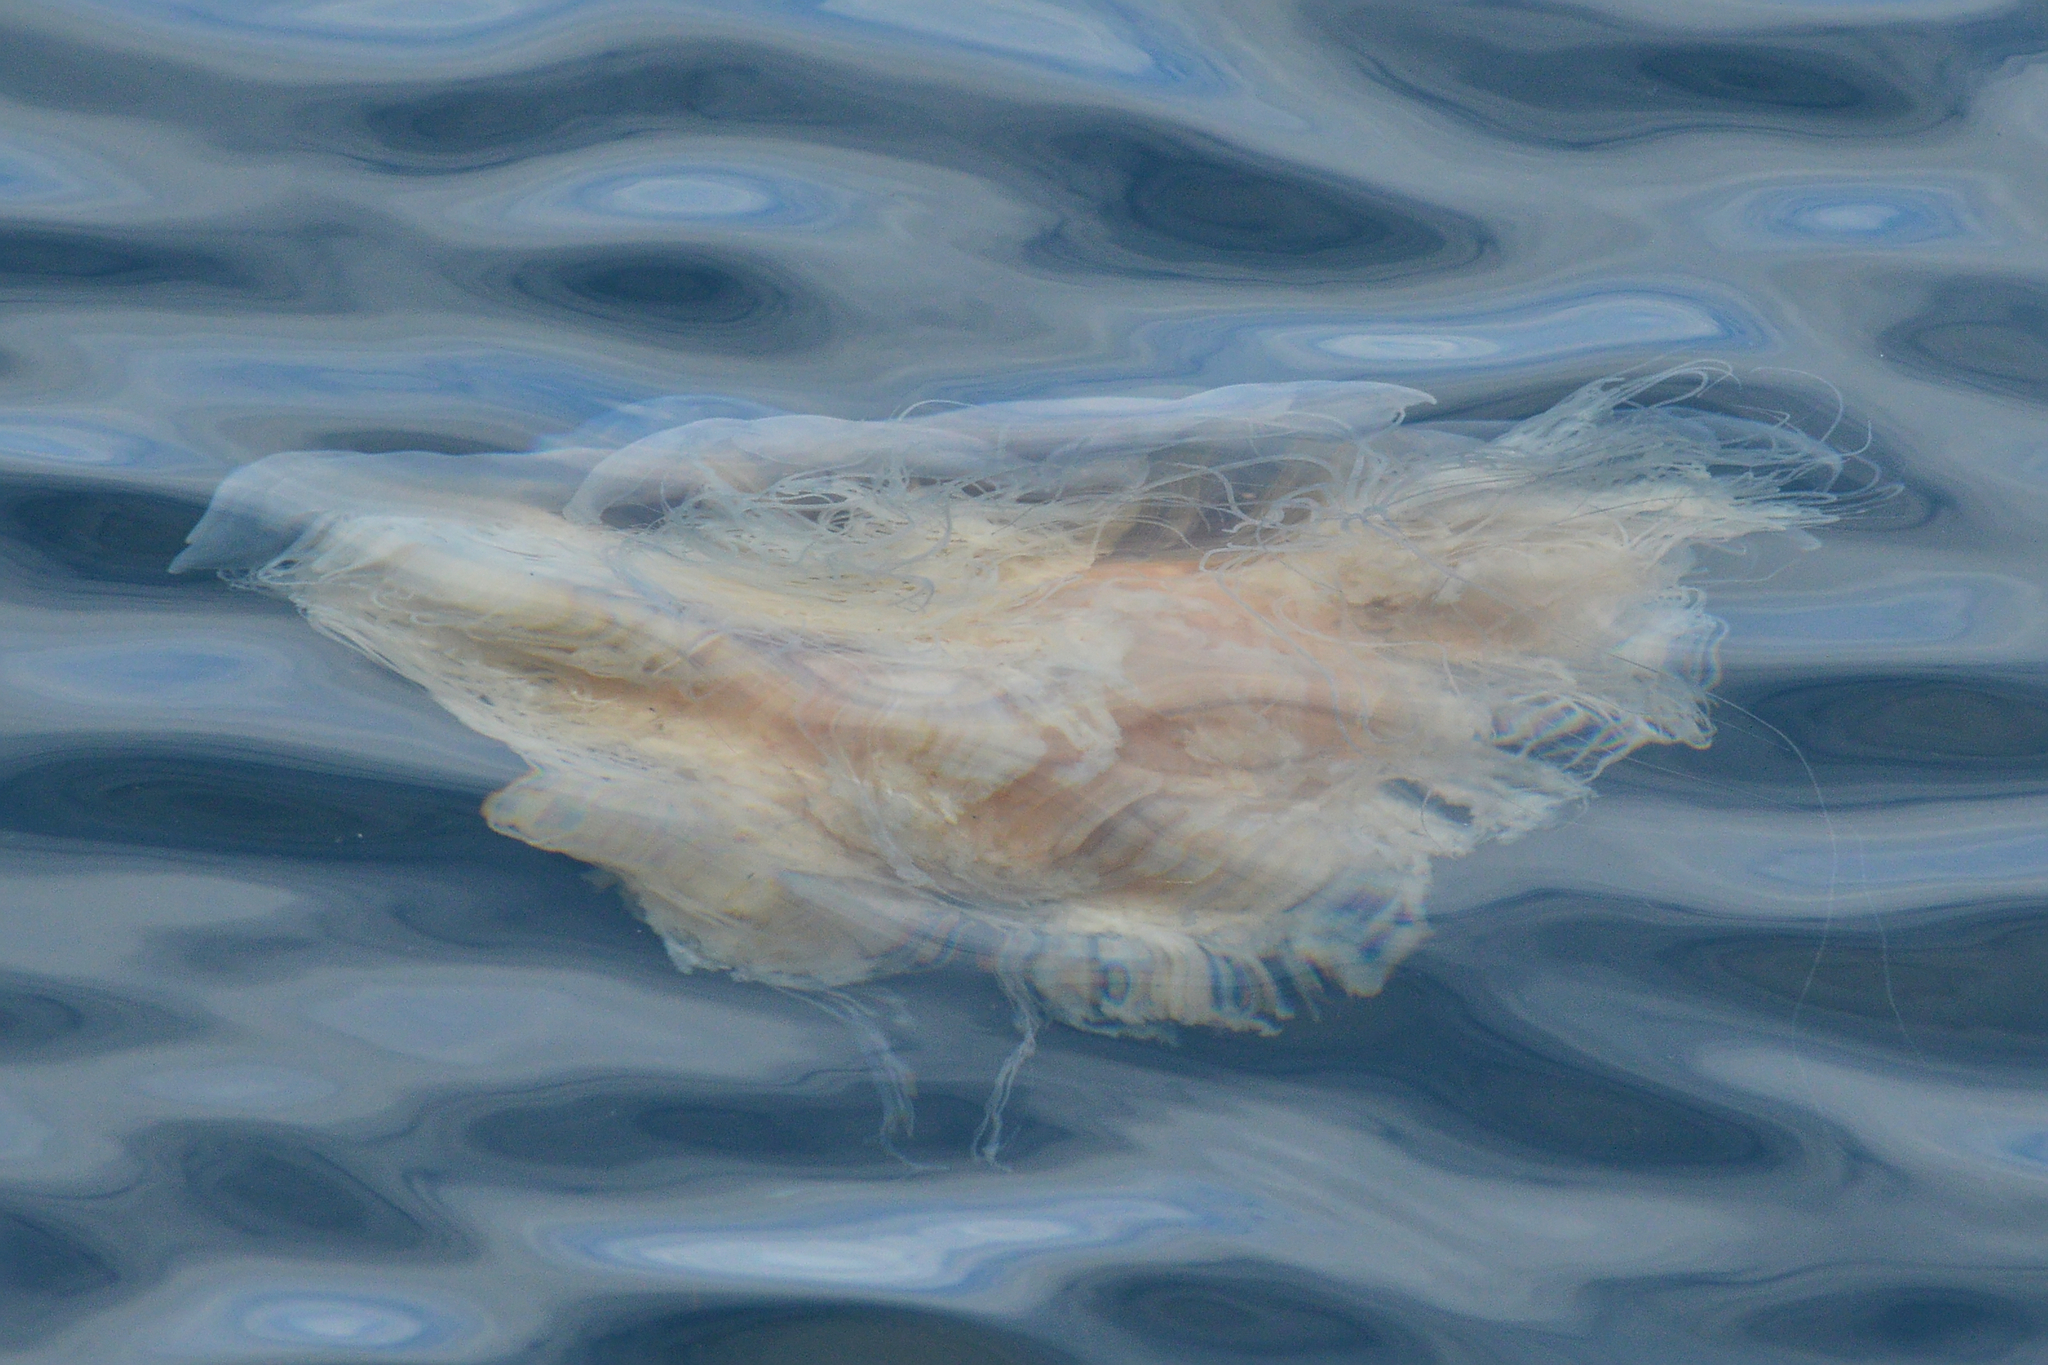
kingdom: Animalia
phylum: Cnidaria
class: Scyphozoa
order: Semaeostomeae
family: Cyaneidae
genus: Cyanea
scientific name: Cyanea capillata
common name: Lion's mane jellyfish
